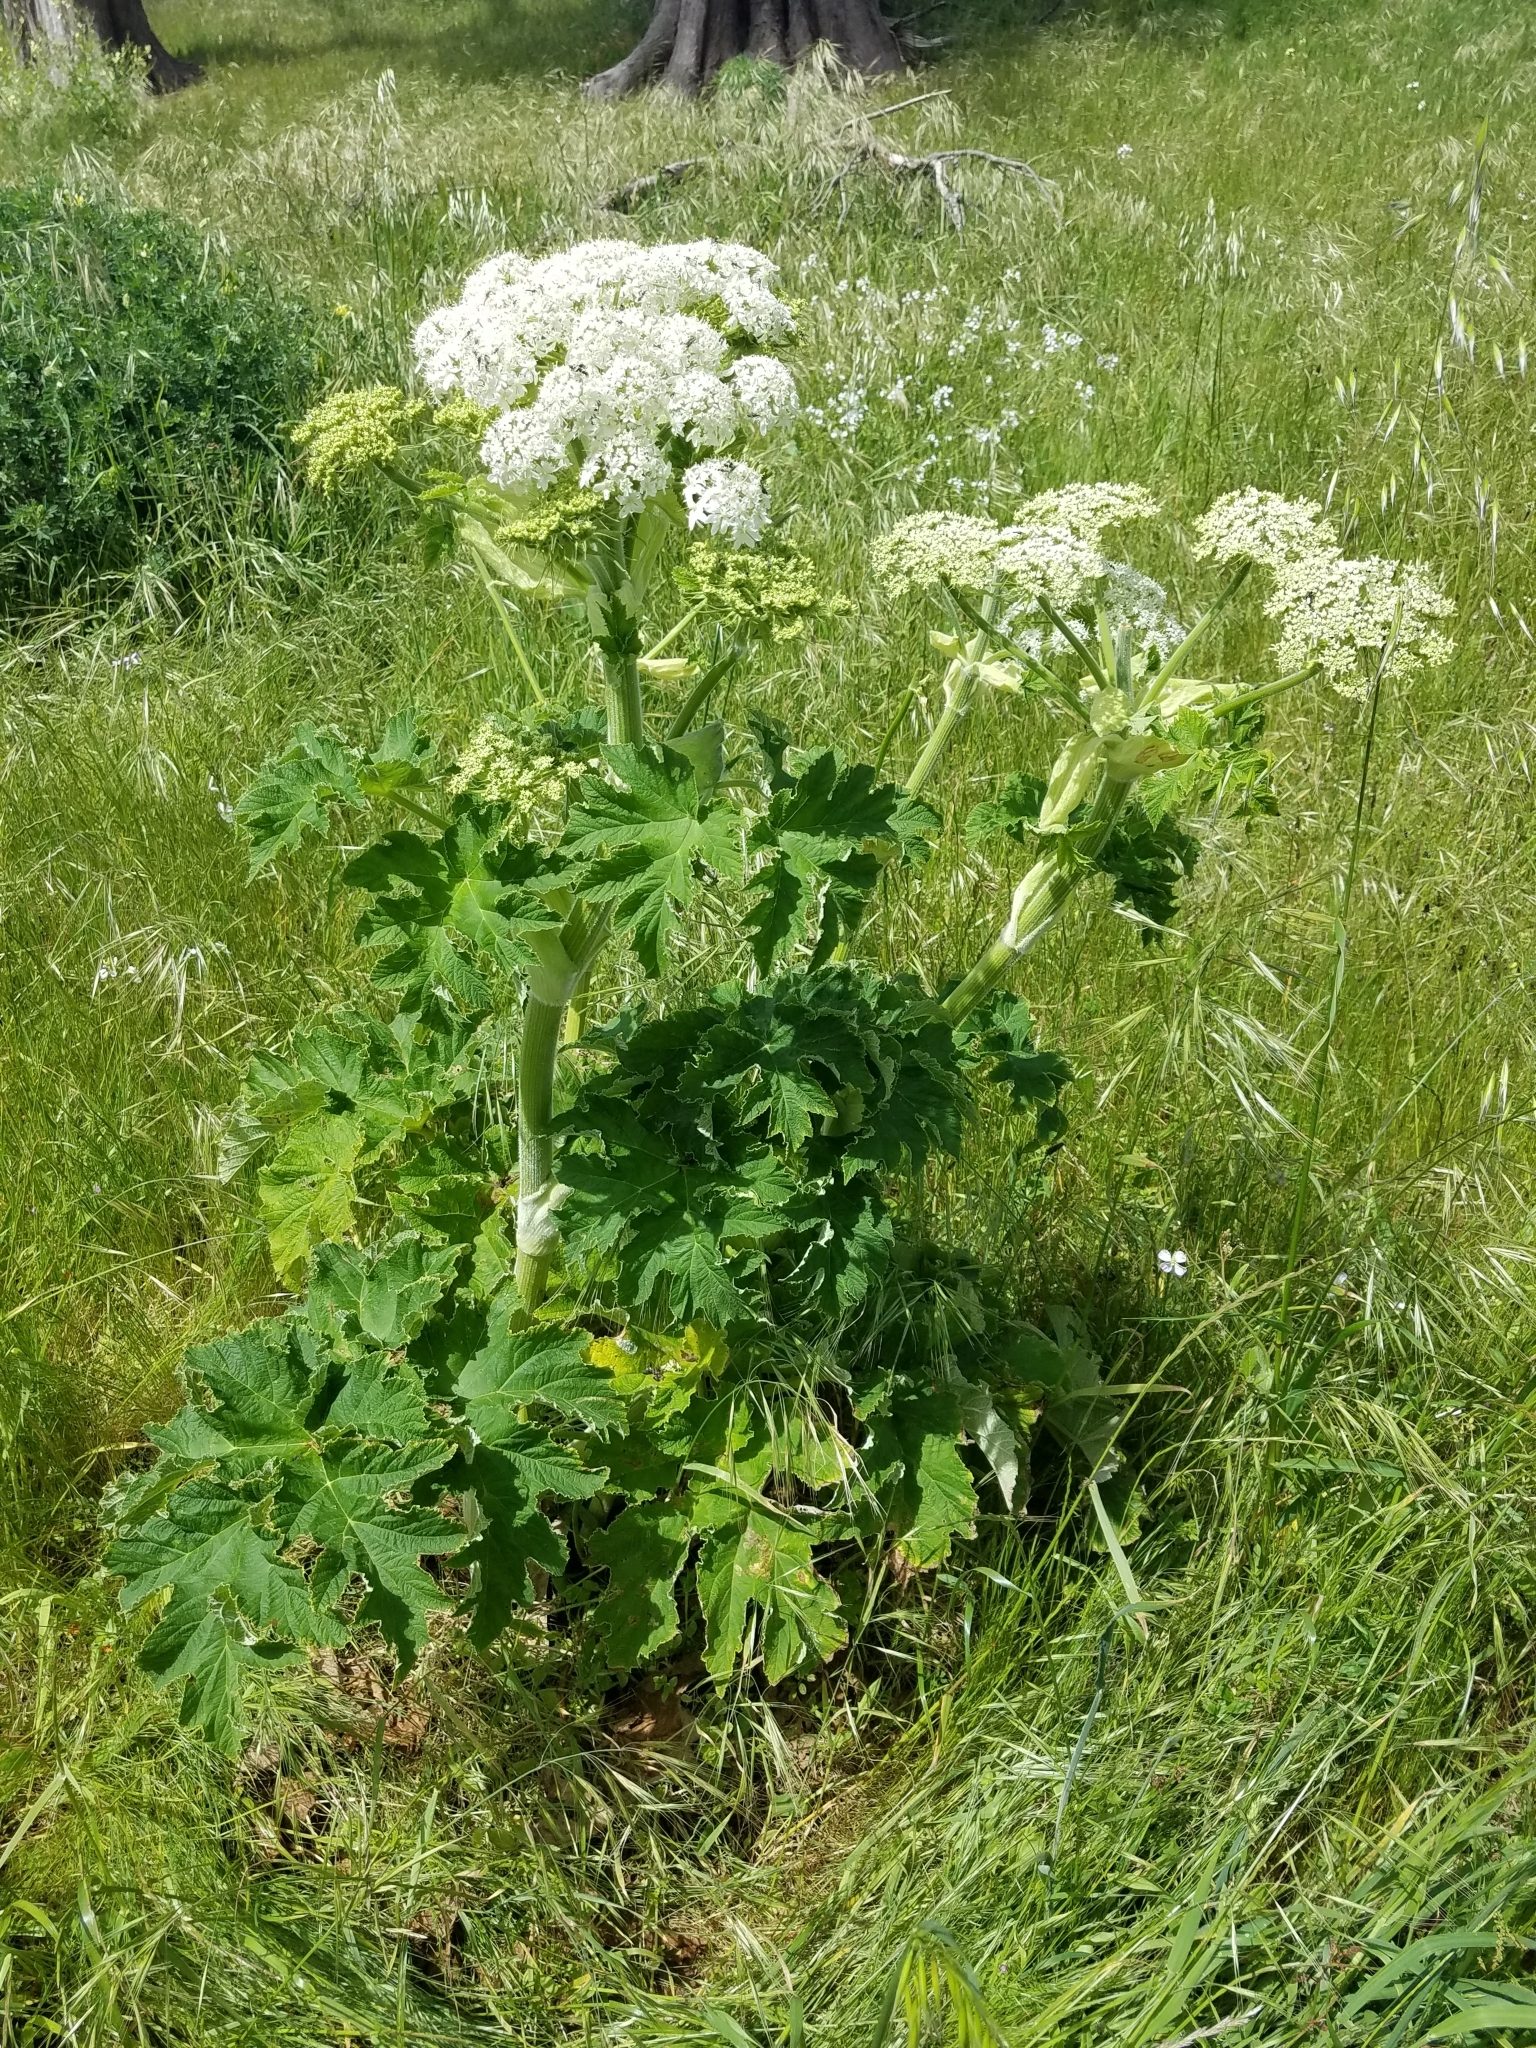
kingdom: Plantae
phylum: Tracheophyta
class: Magnoliopsida
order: Apiales
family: Apiaceae
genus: Heracleum
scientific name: Heracleum maximum
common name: American cow parsnip
